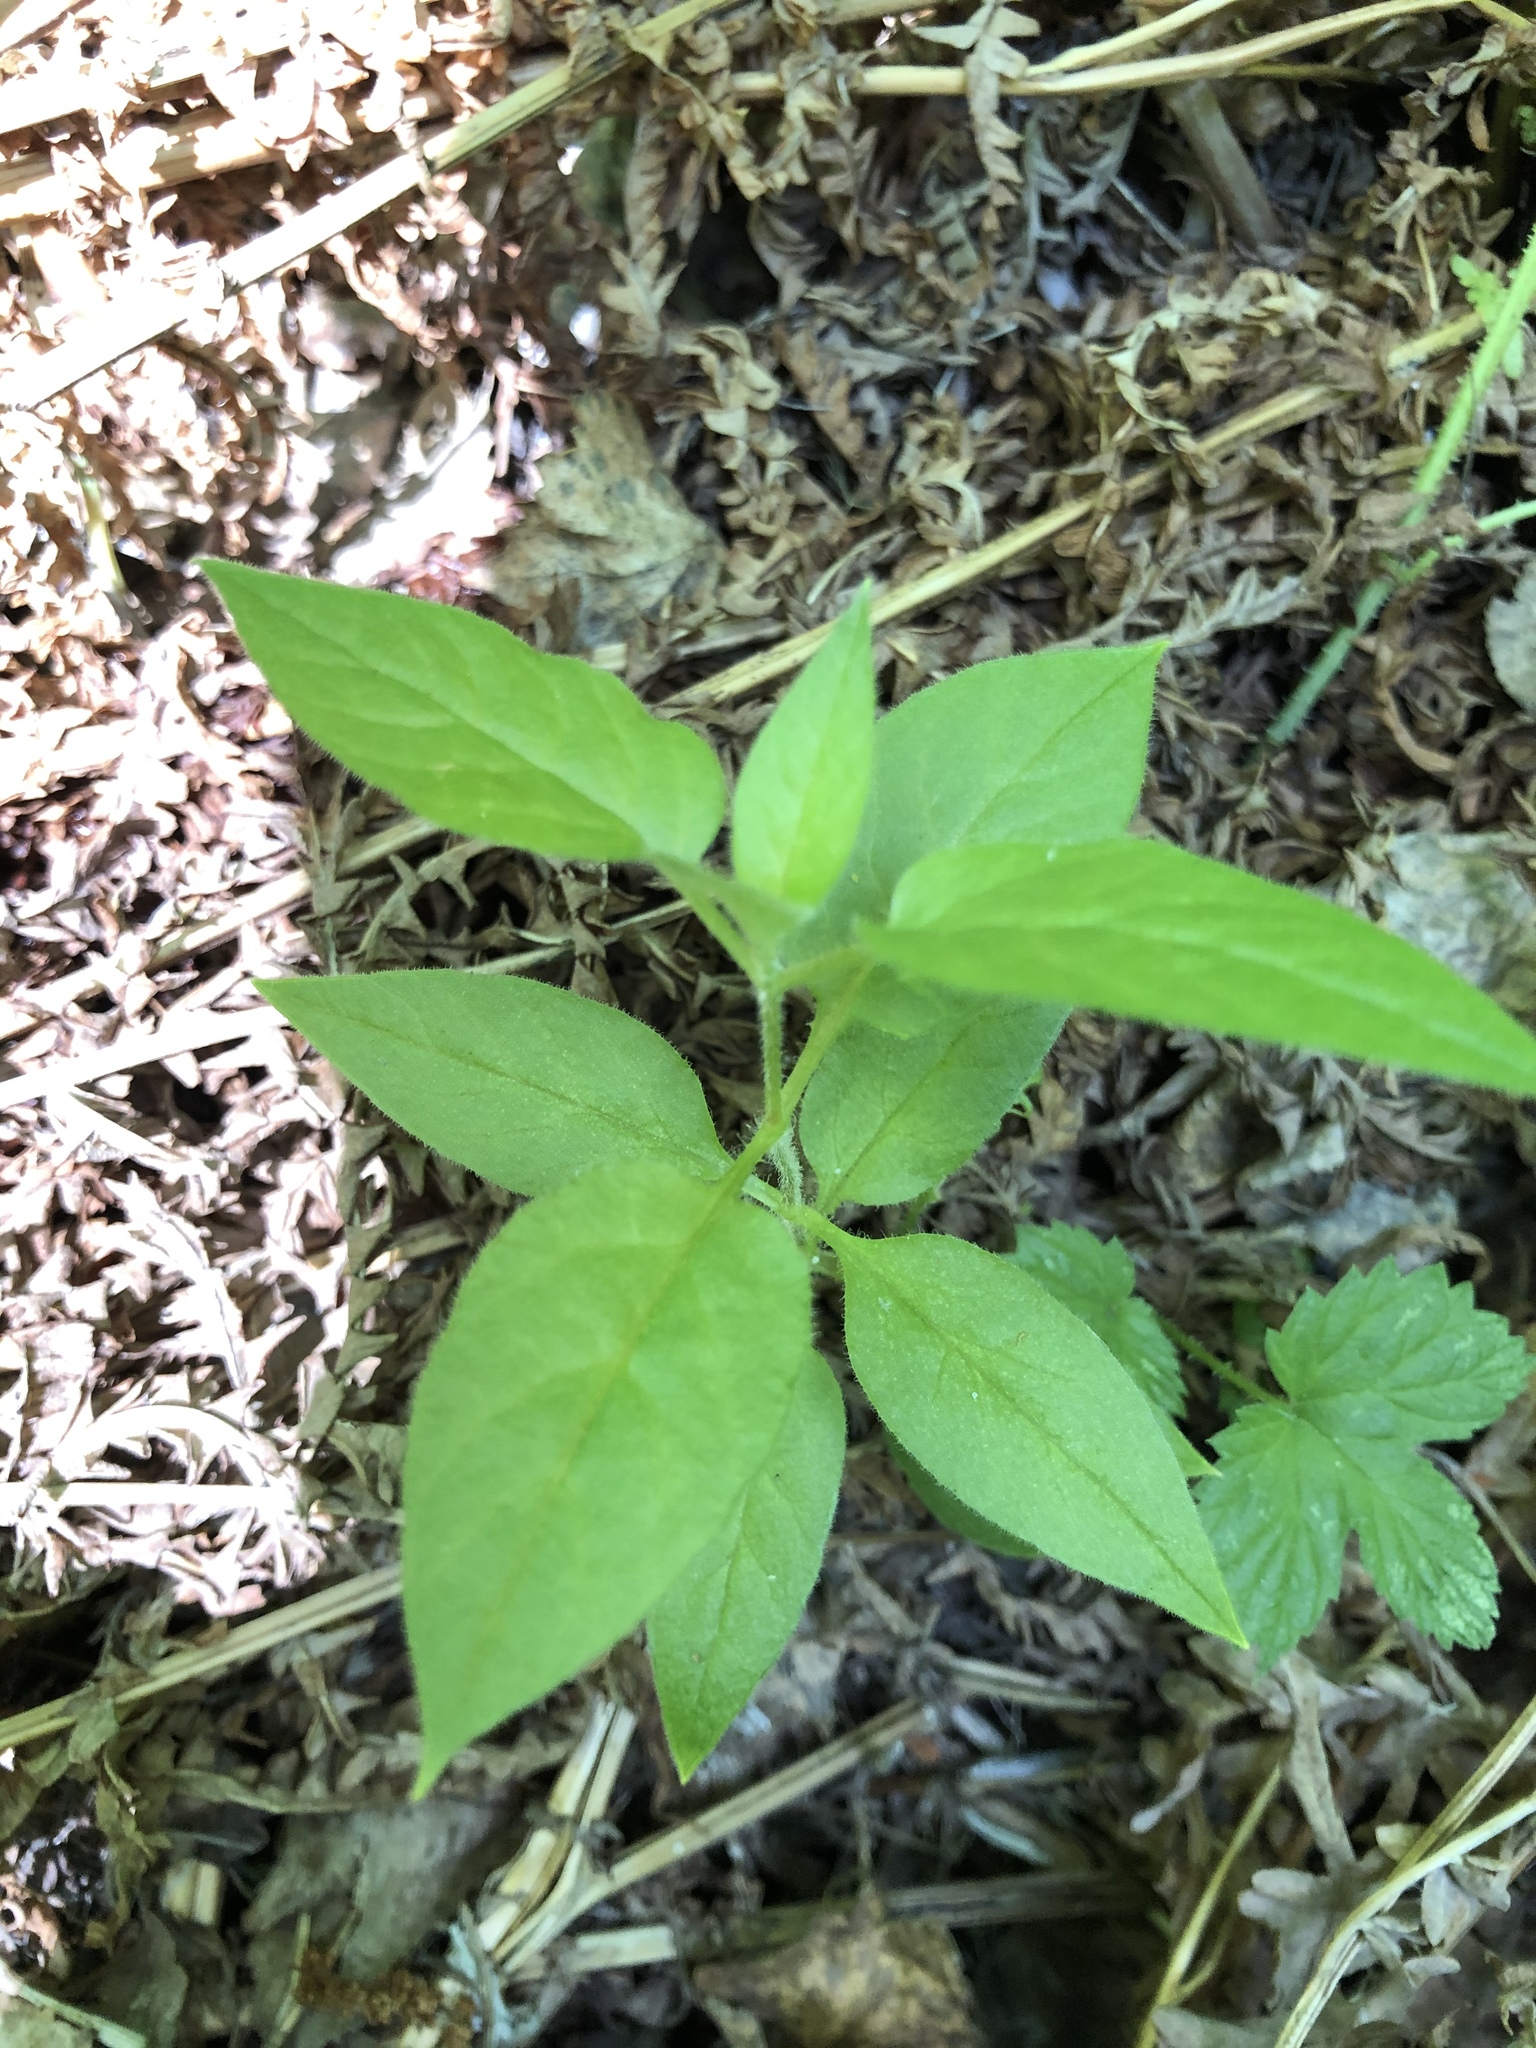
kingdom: Plantae
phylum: Tracheophyta
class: Magnoliopsida
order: Caryophyllales
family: Caryophyllaceae
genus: Stellaria
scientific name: Stellaria bungeana
